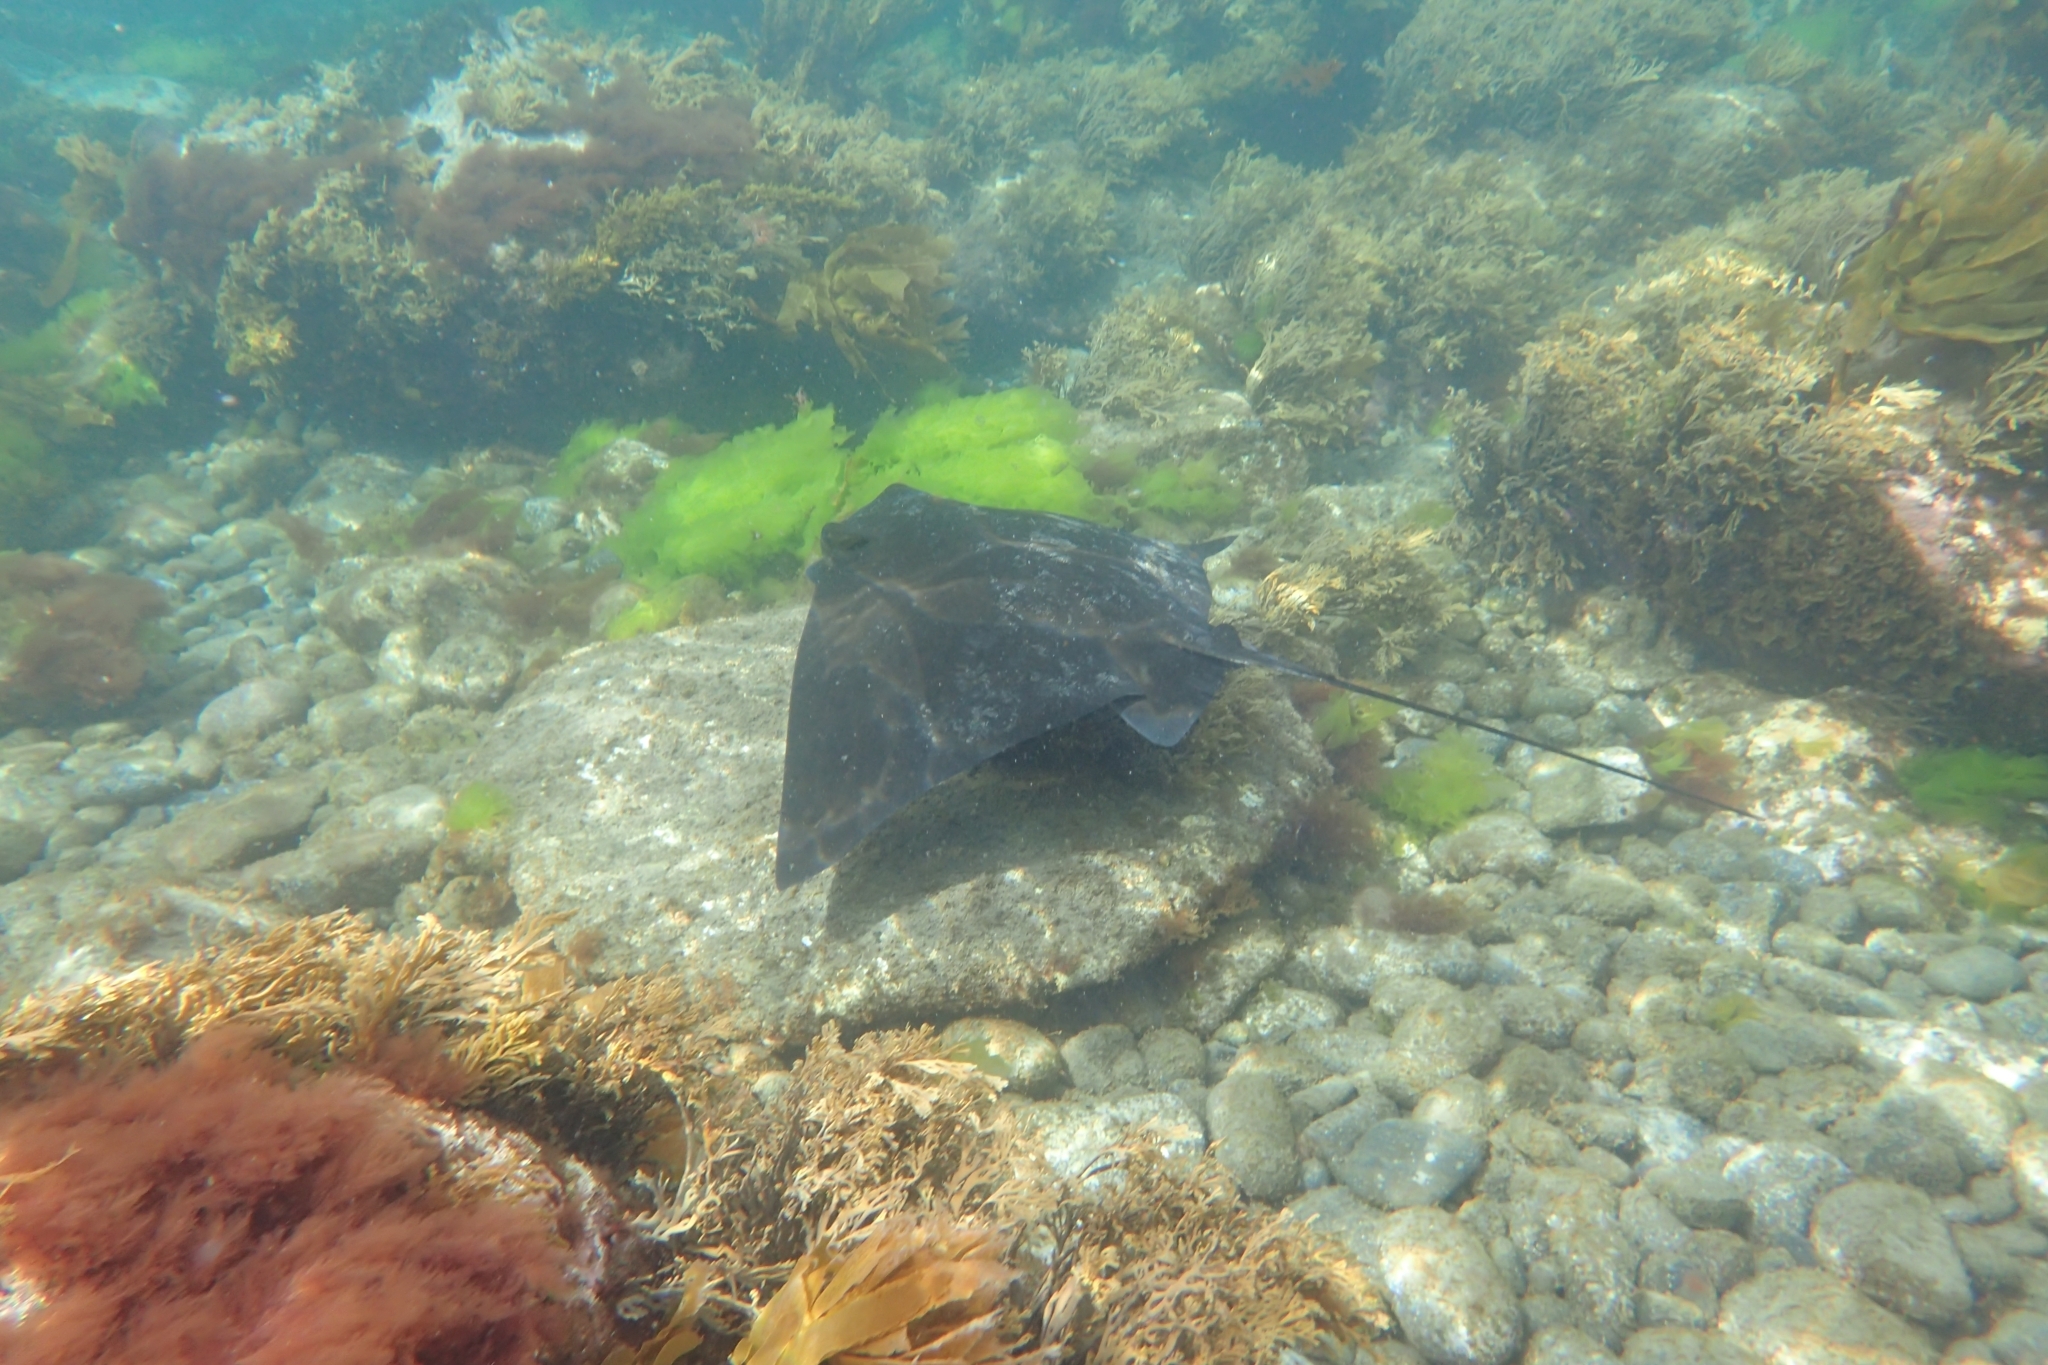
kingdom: Animalia
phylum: Chordata
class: Elasmobranchii
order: Myliobatiformes
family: Myliobatidae
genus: Myliobatis
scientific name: Myliobatis tenuicaudatus
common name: Eagle ray
